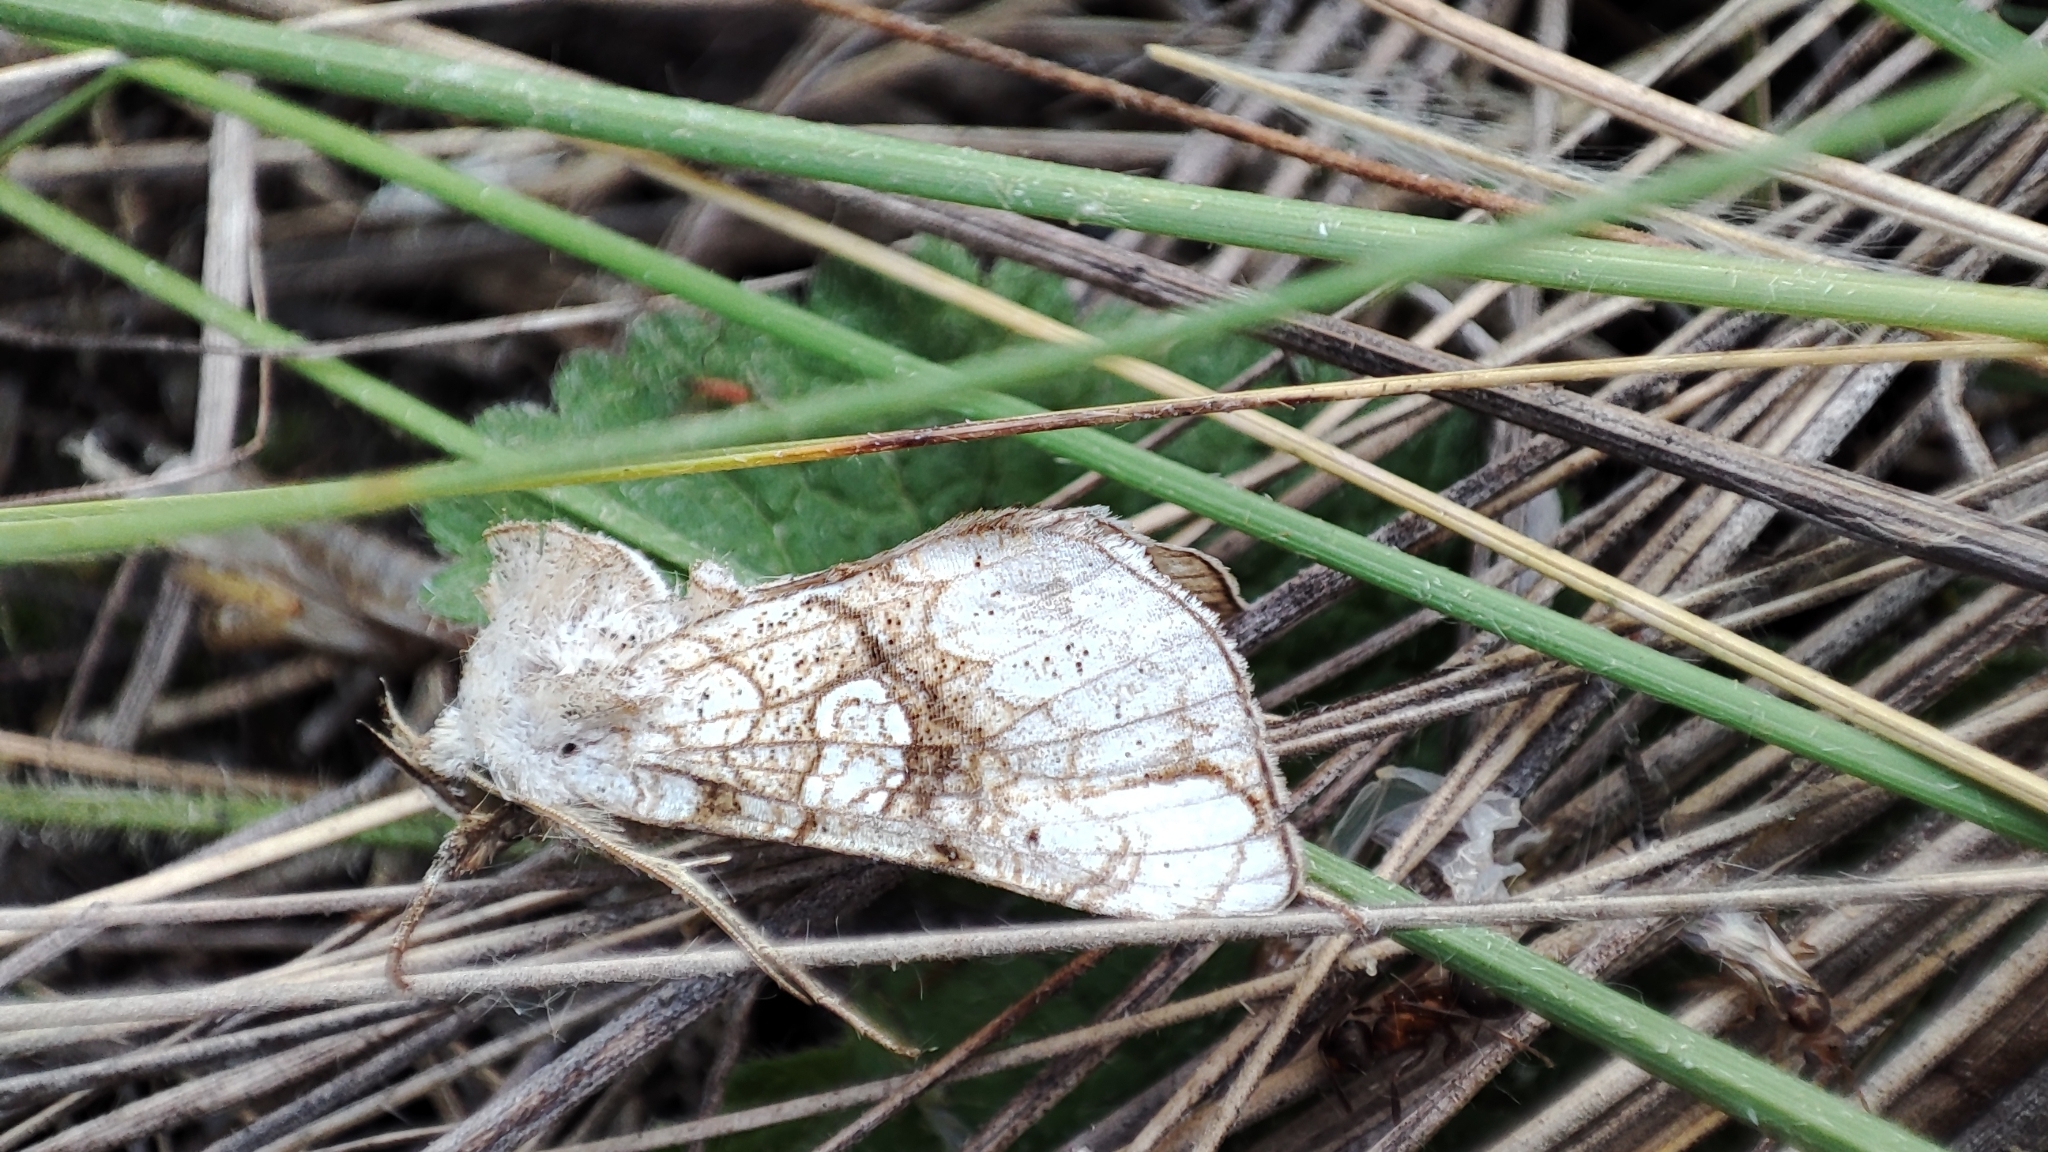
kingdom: Animalia
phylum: Arthropoda
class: Insecta
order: Lepidoptera
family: Noctuidae
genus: Polychrysia
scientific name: Polychrysia esmeralda
